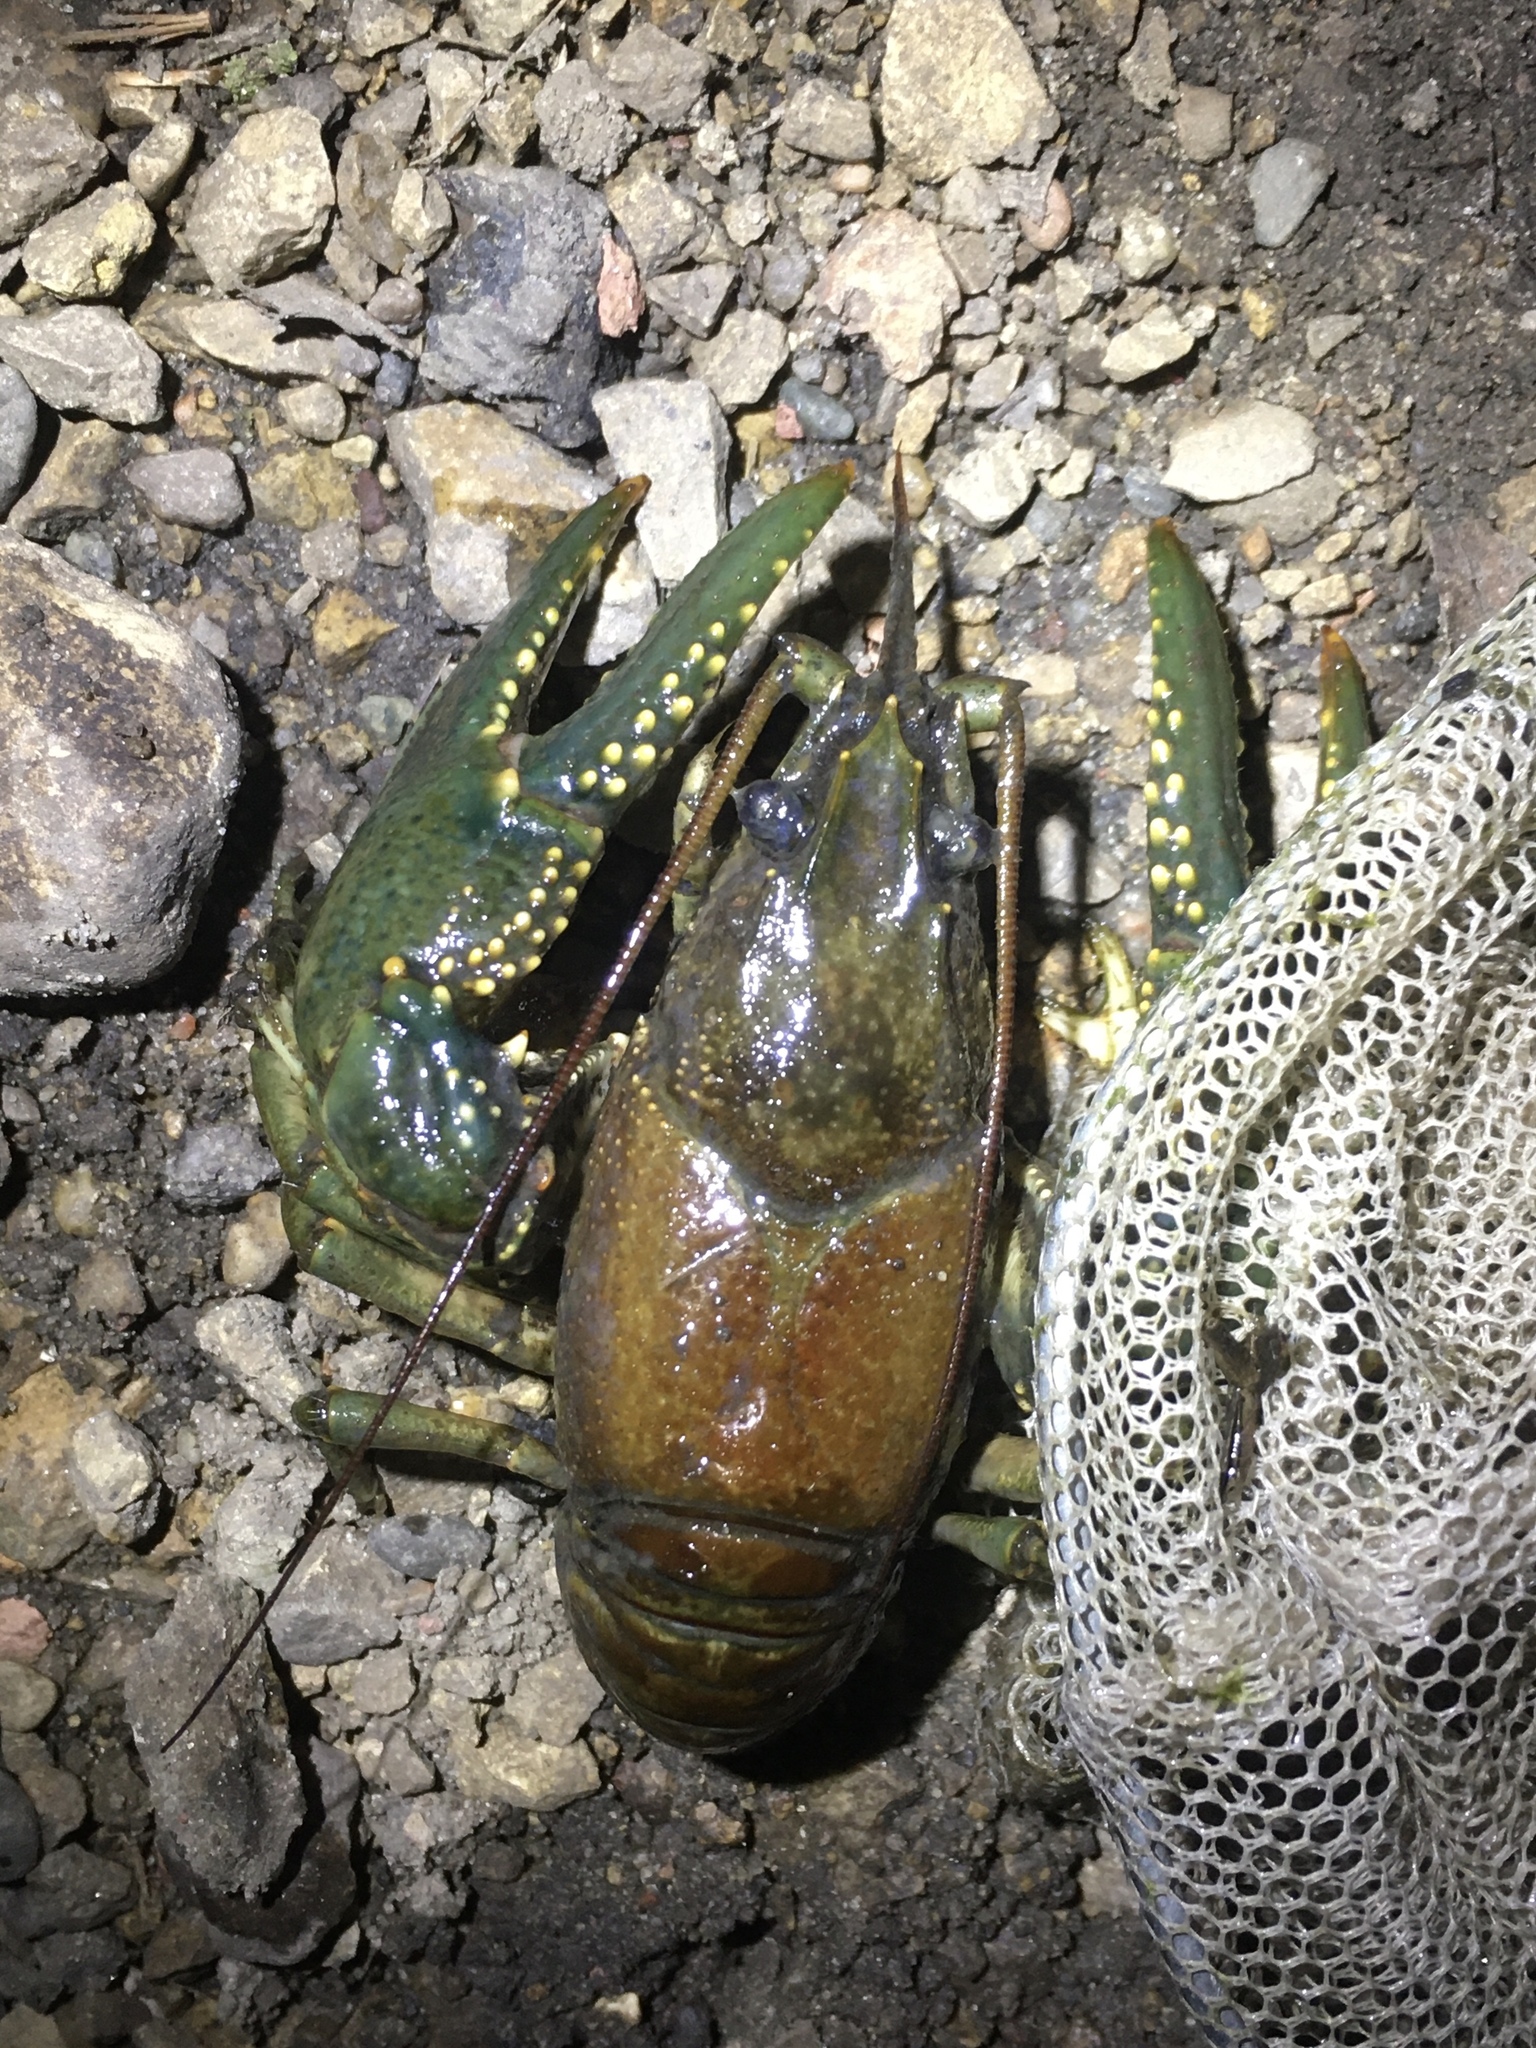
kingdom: Animalia
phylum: Arthropoda
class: Malacostraca
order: Decapoda
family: Cambaridae
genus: Faxonius
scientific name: Faxonius virilis
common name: Virile crayfish
